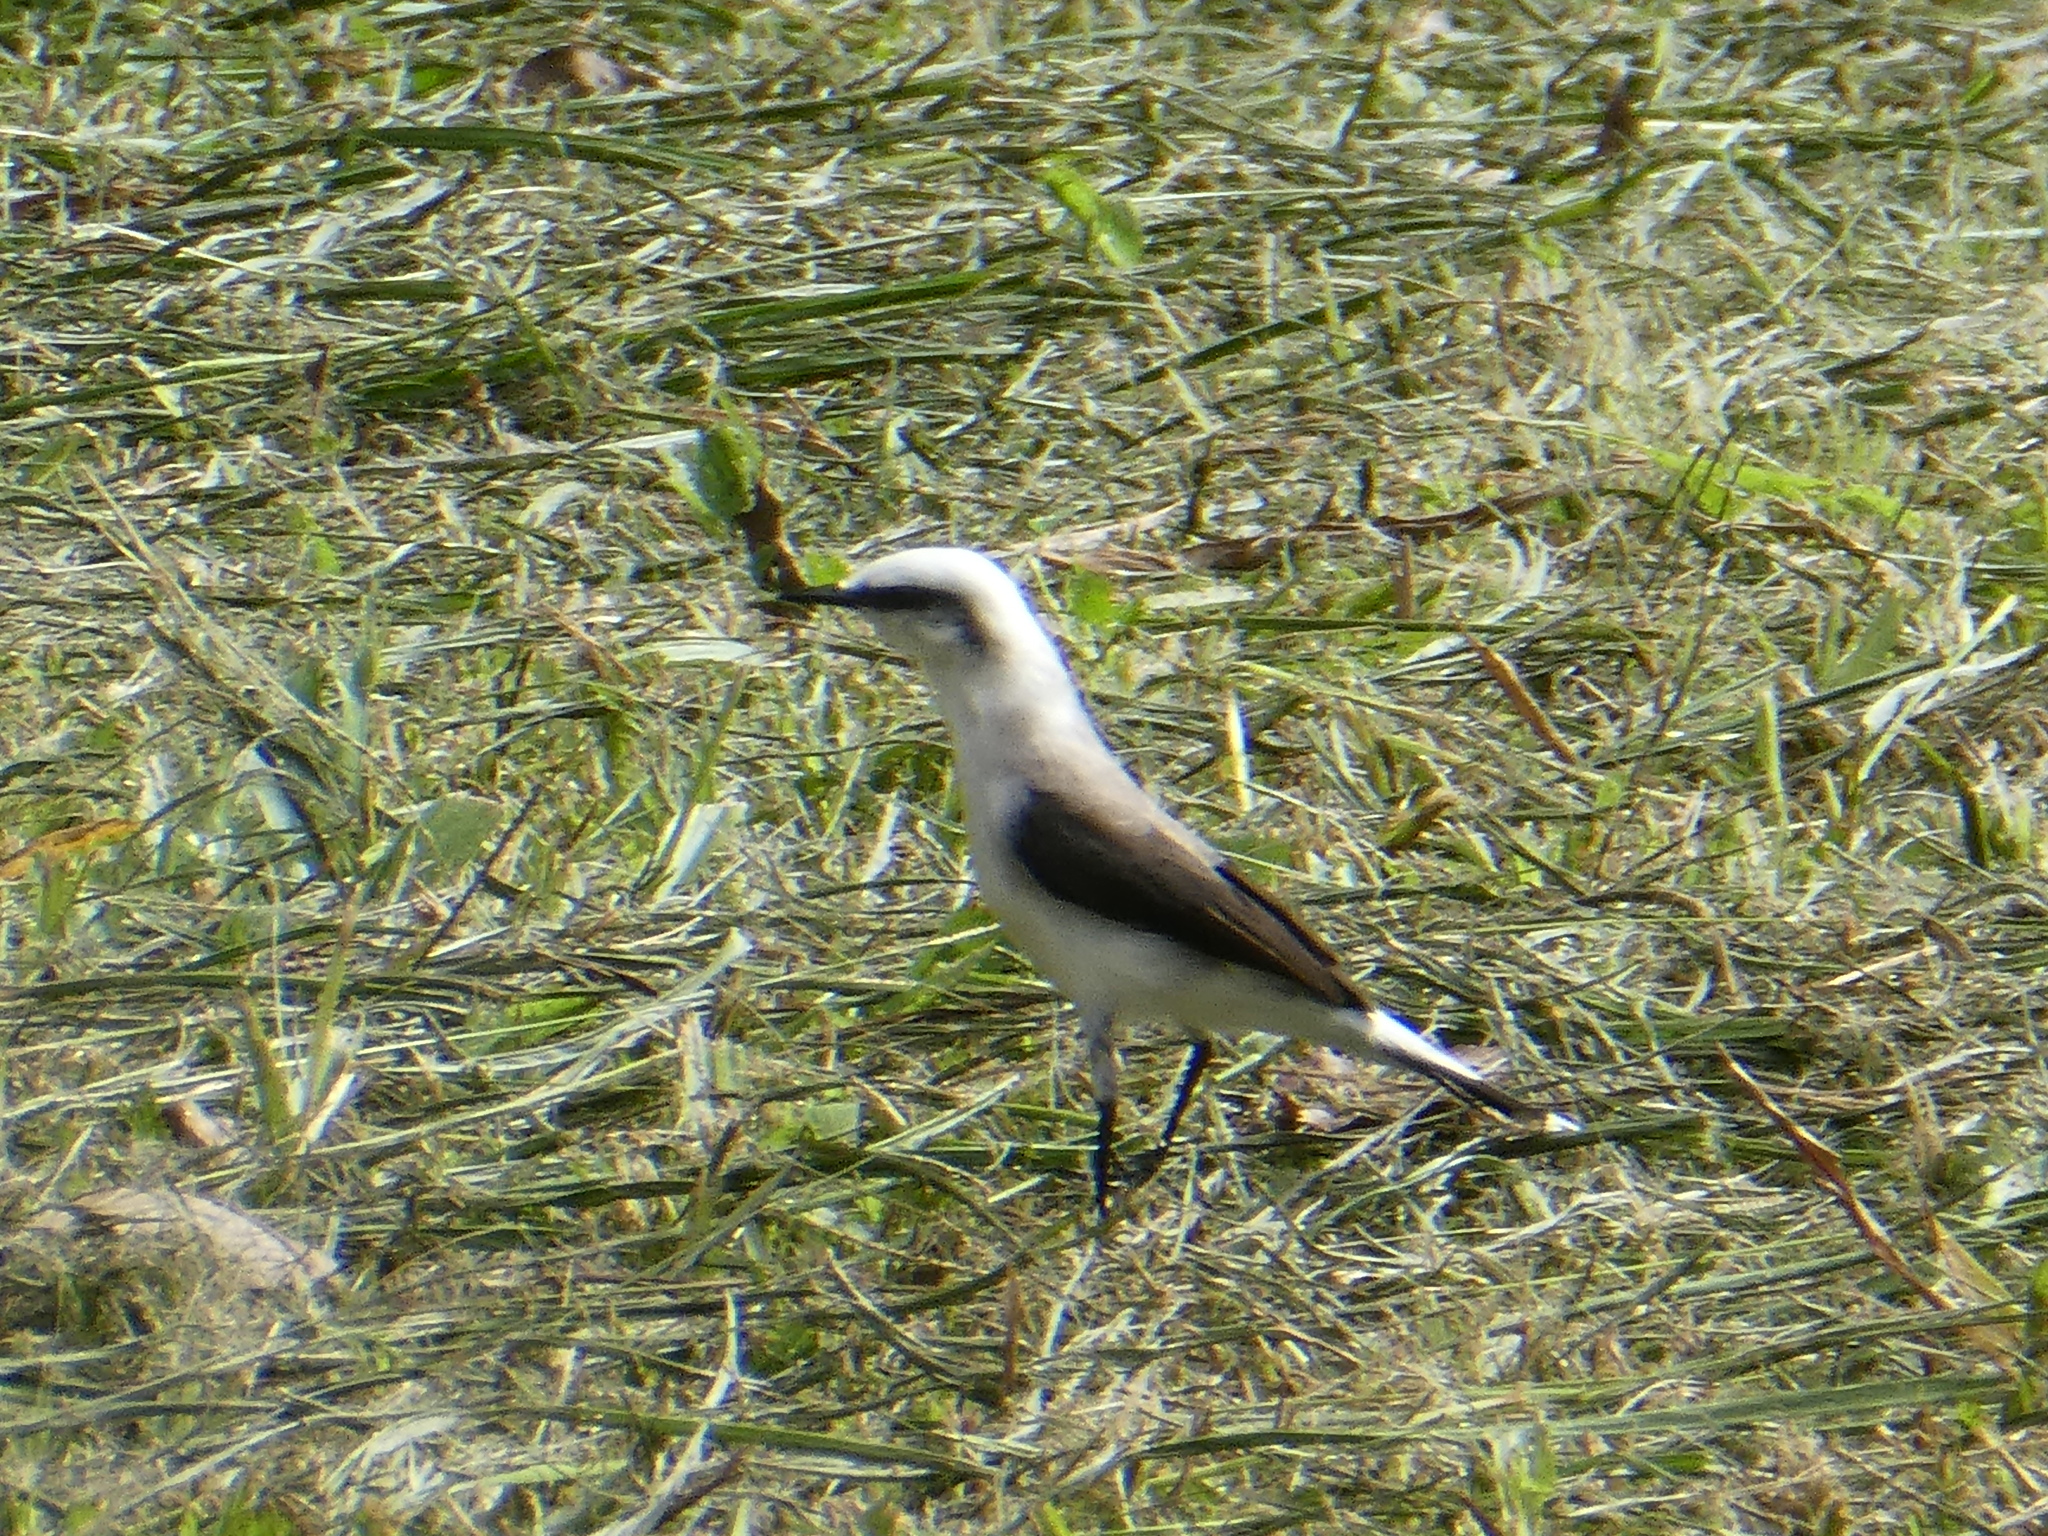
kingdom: Animalia
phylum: Chordata
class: Aves
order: Passeriformes
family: Tyrannidae
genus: Fluvicola
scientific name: Fluvicola nengeta
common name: Masked water tyrant
